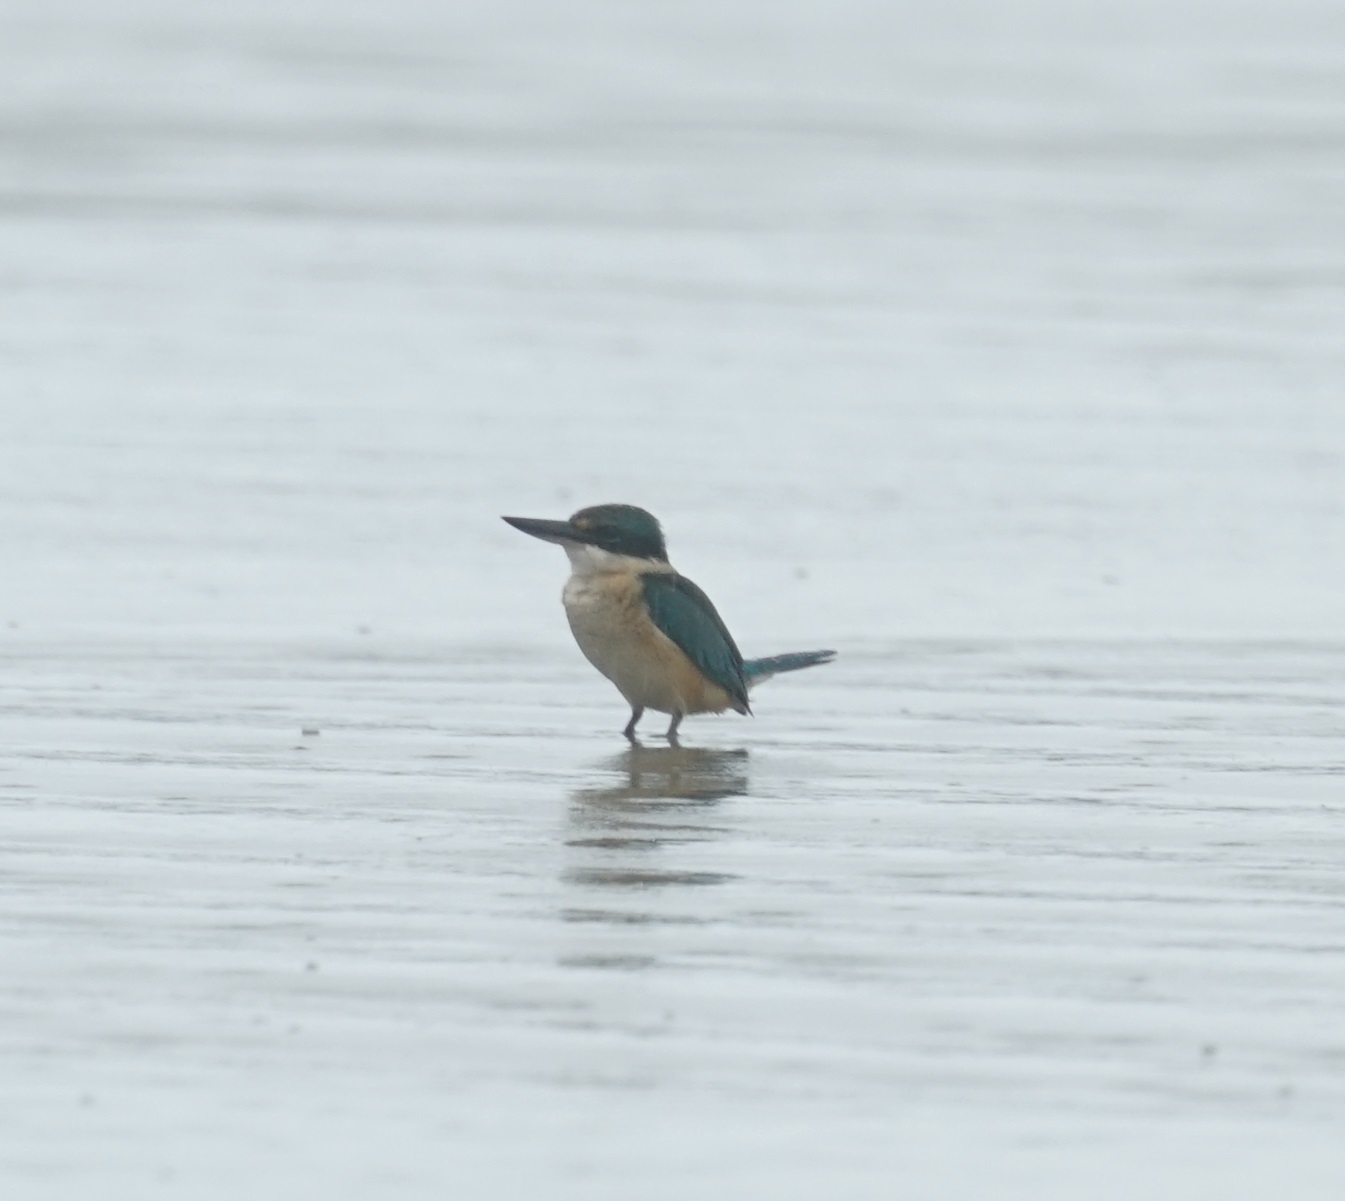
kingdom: Animalia
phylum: Chordata
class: Aves
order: Coraciiformes
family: Alcedinidae
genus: Todiramphus
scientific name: Todiramphus sanctus
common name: Sacred kingfisher
